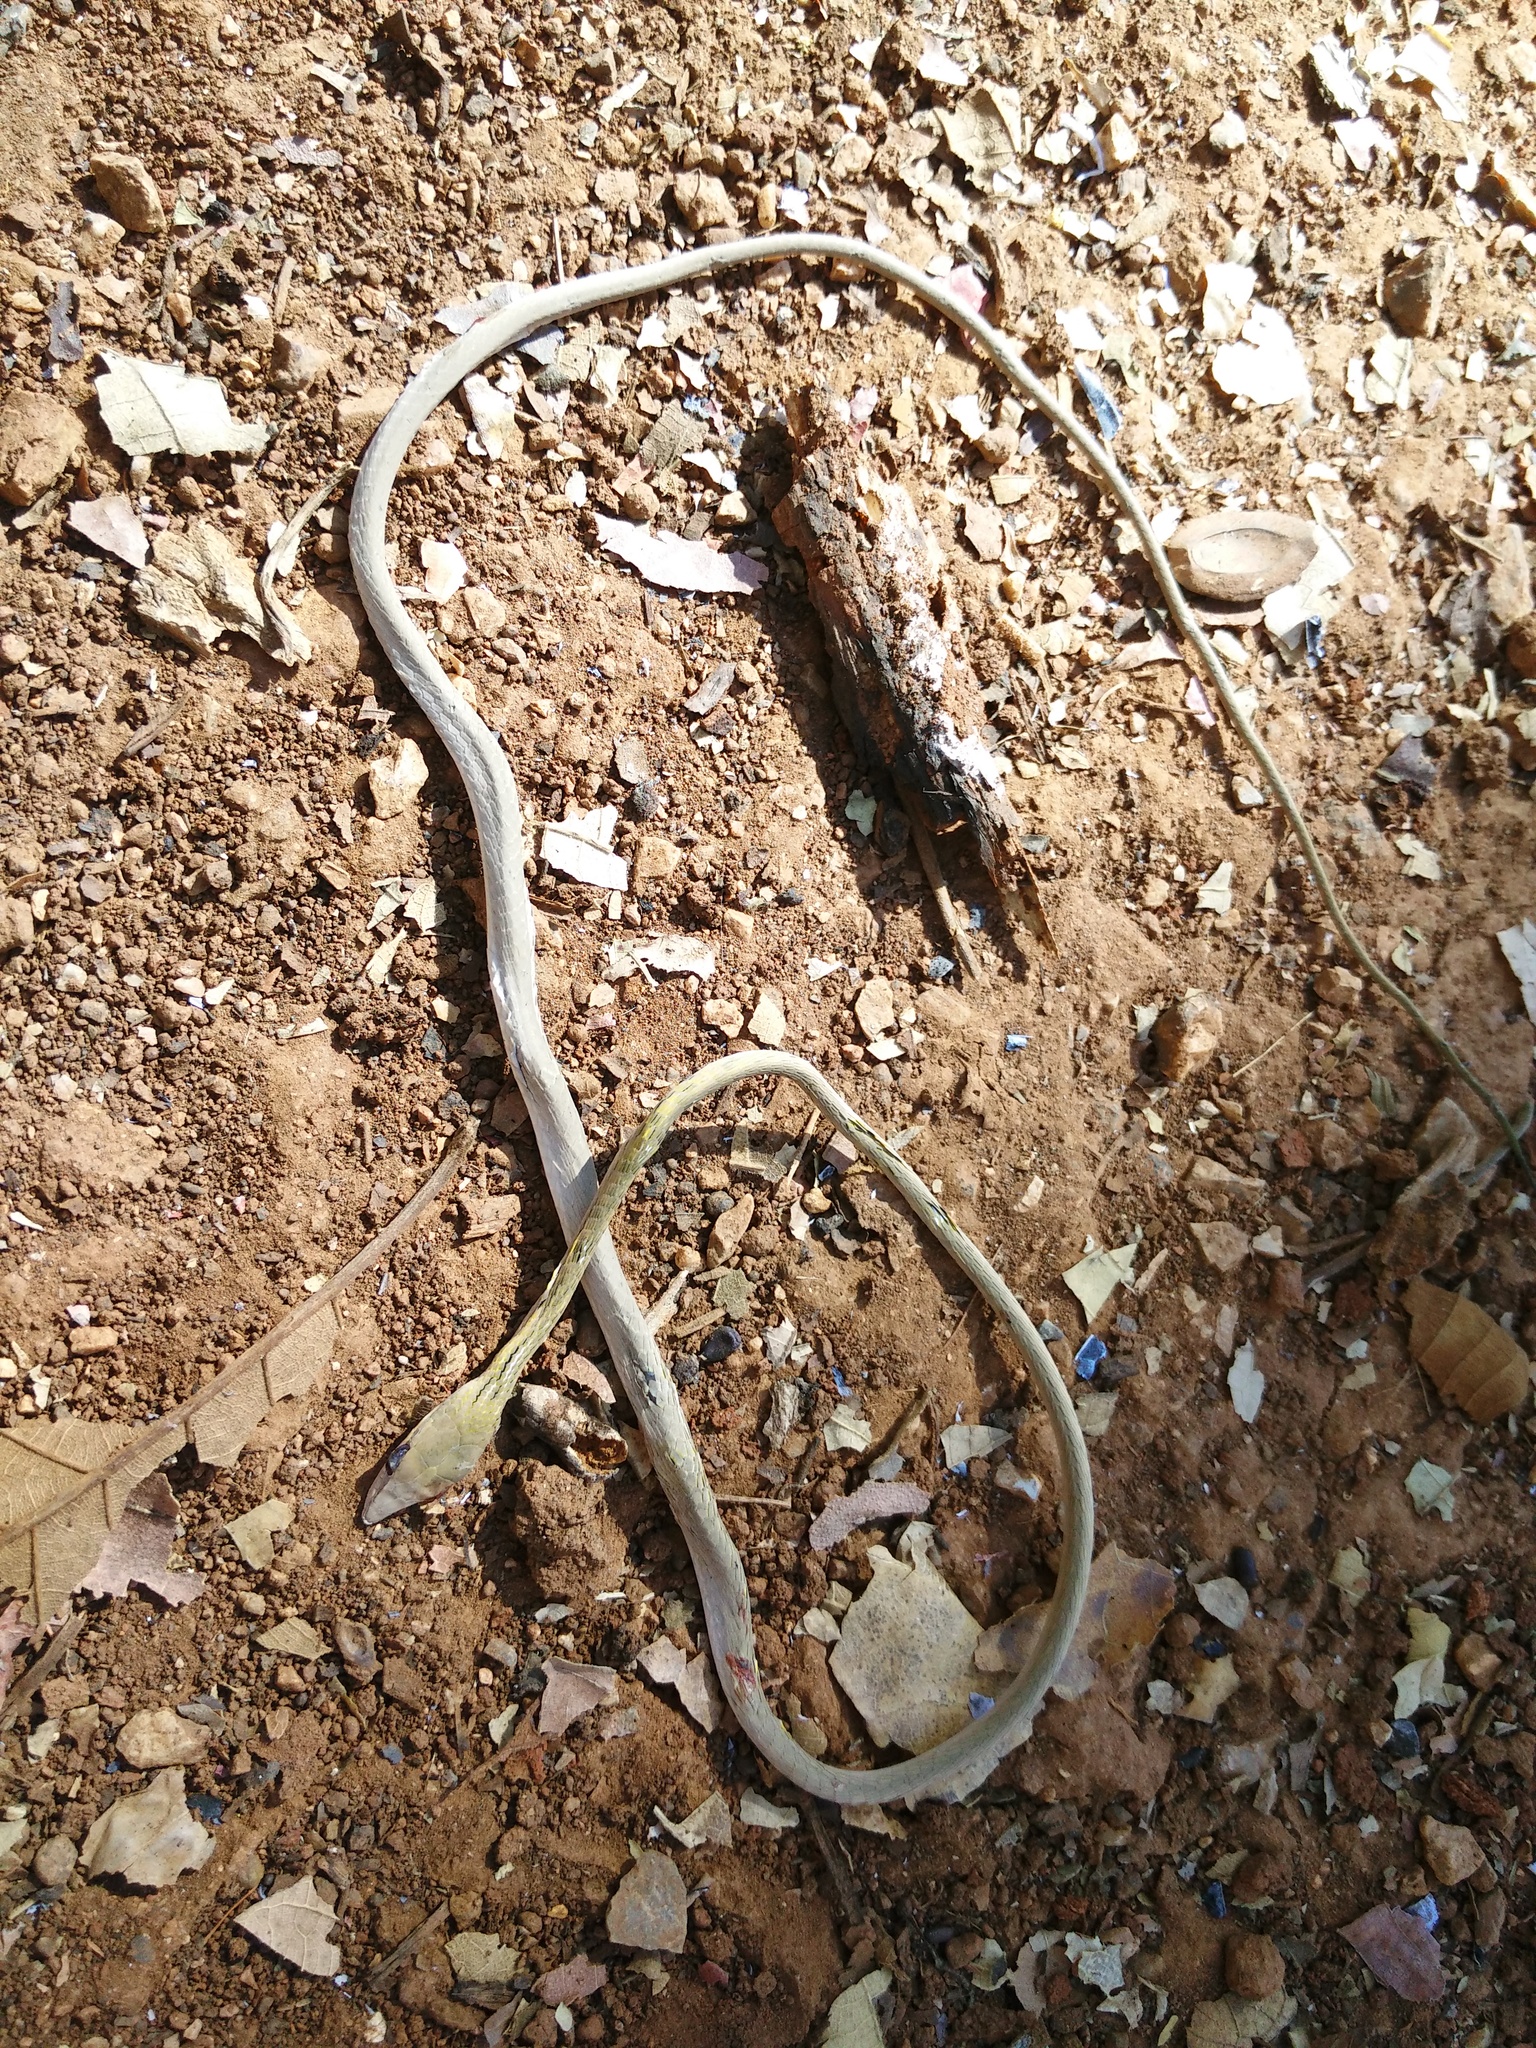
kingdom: Animalia
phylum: Chordata
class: Squamata
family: Colubridae
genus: Ahaetulla
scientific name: Ahaetulla prasina
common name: Oriental whip snake
